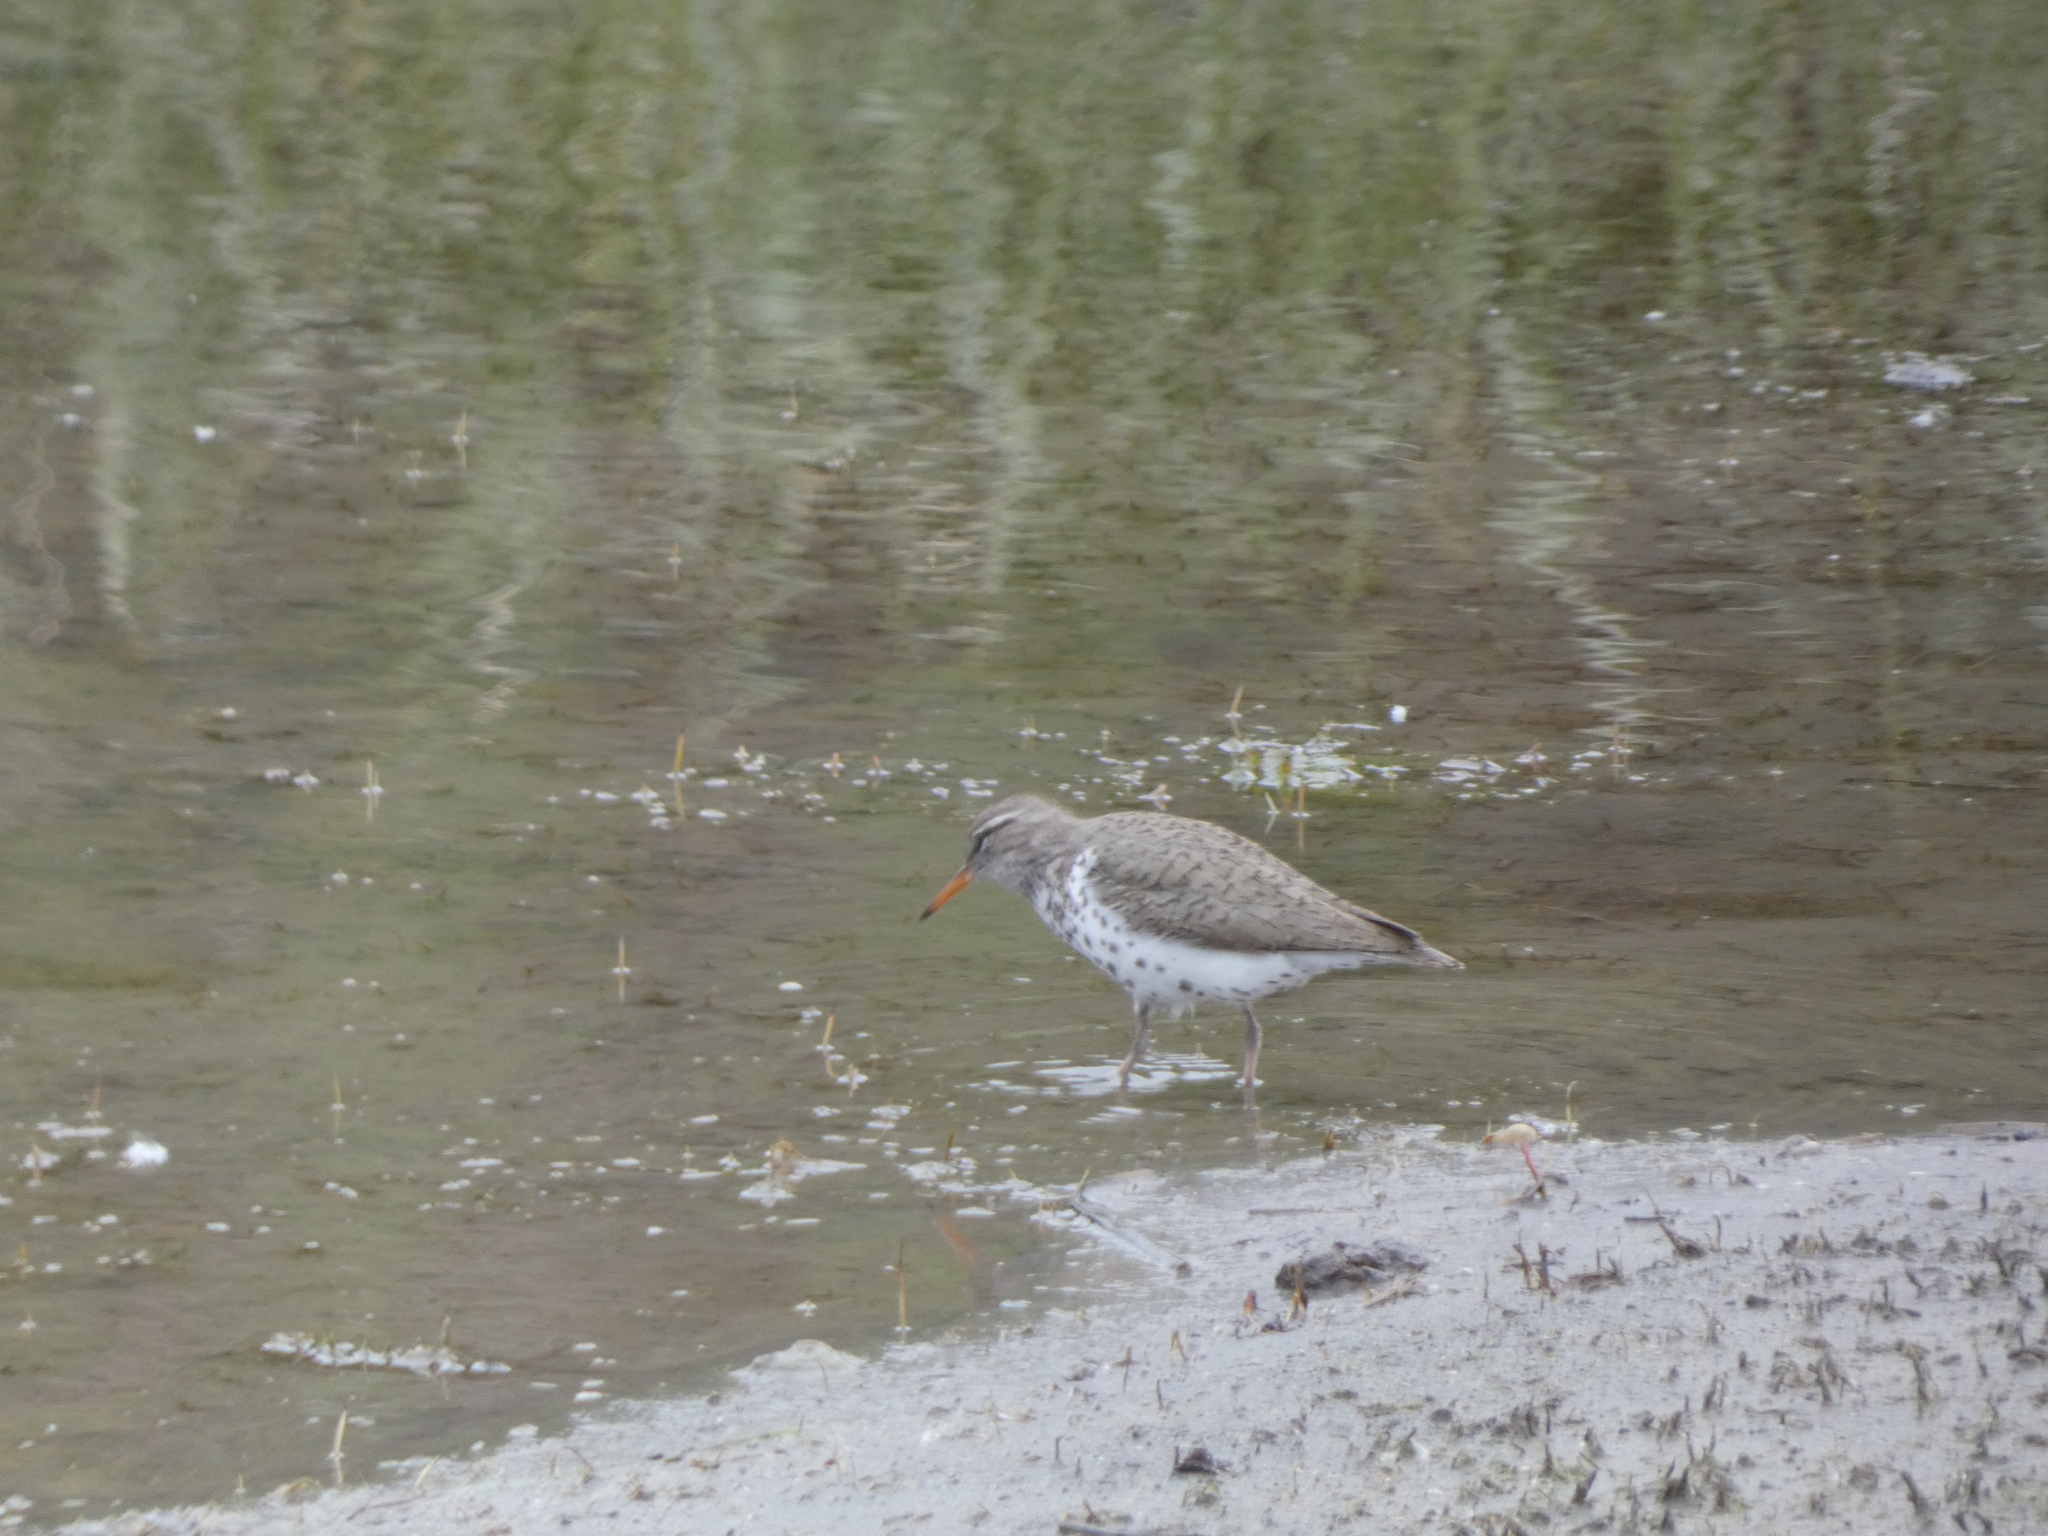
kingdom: Animalia
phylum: Chordata
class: Aves
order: Charadriiformes
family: Scolopacidae
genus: Actitis
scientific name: Actitis macularius
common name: Spotted sandpiper
